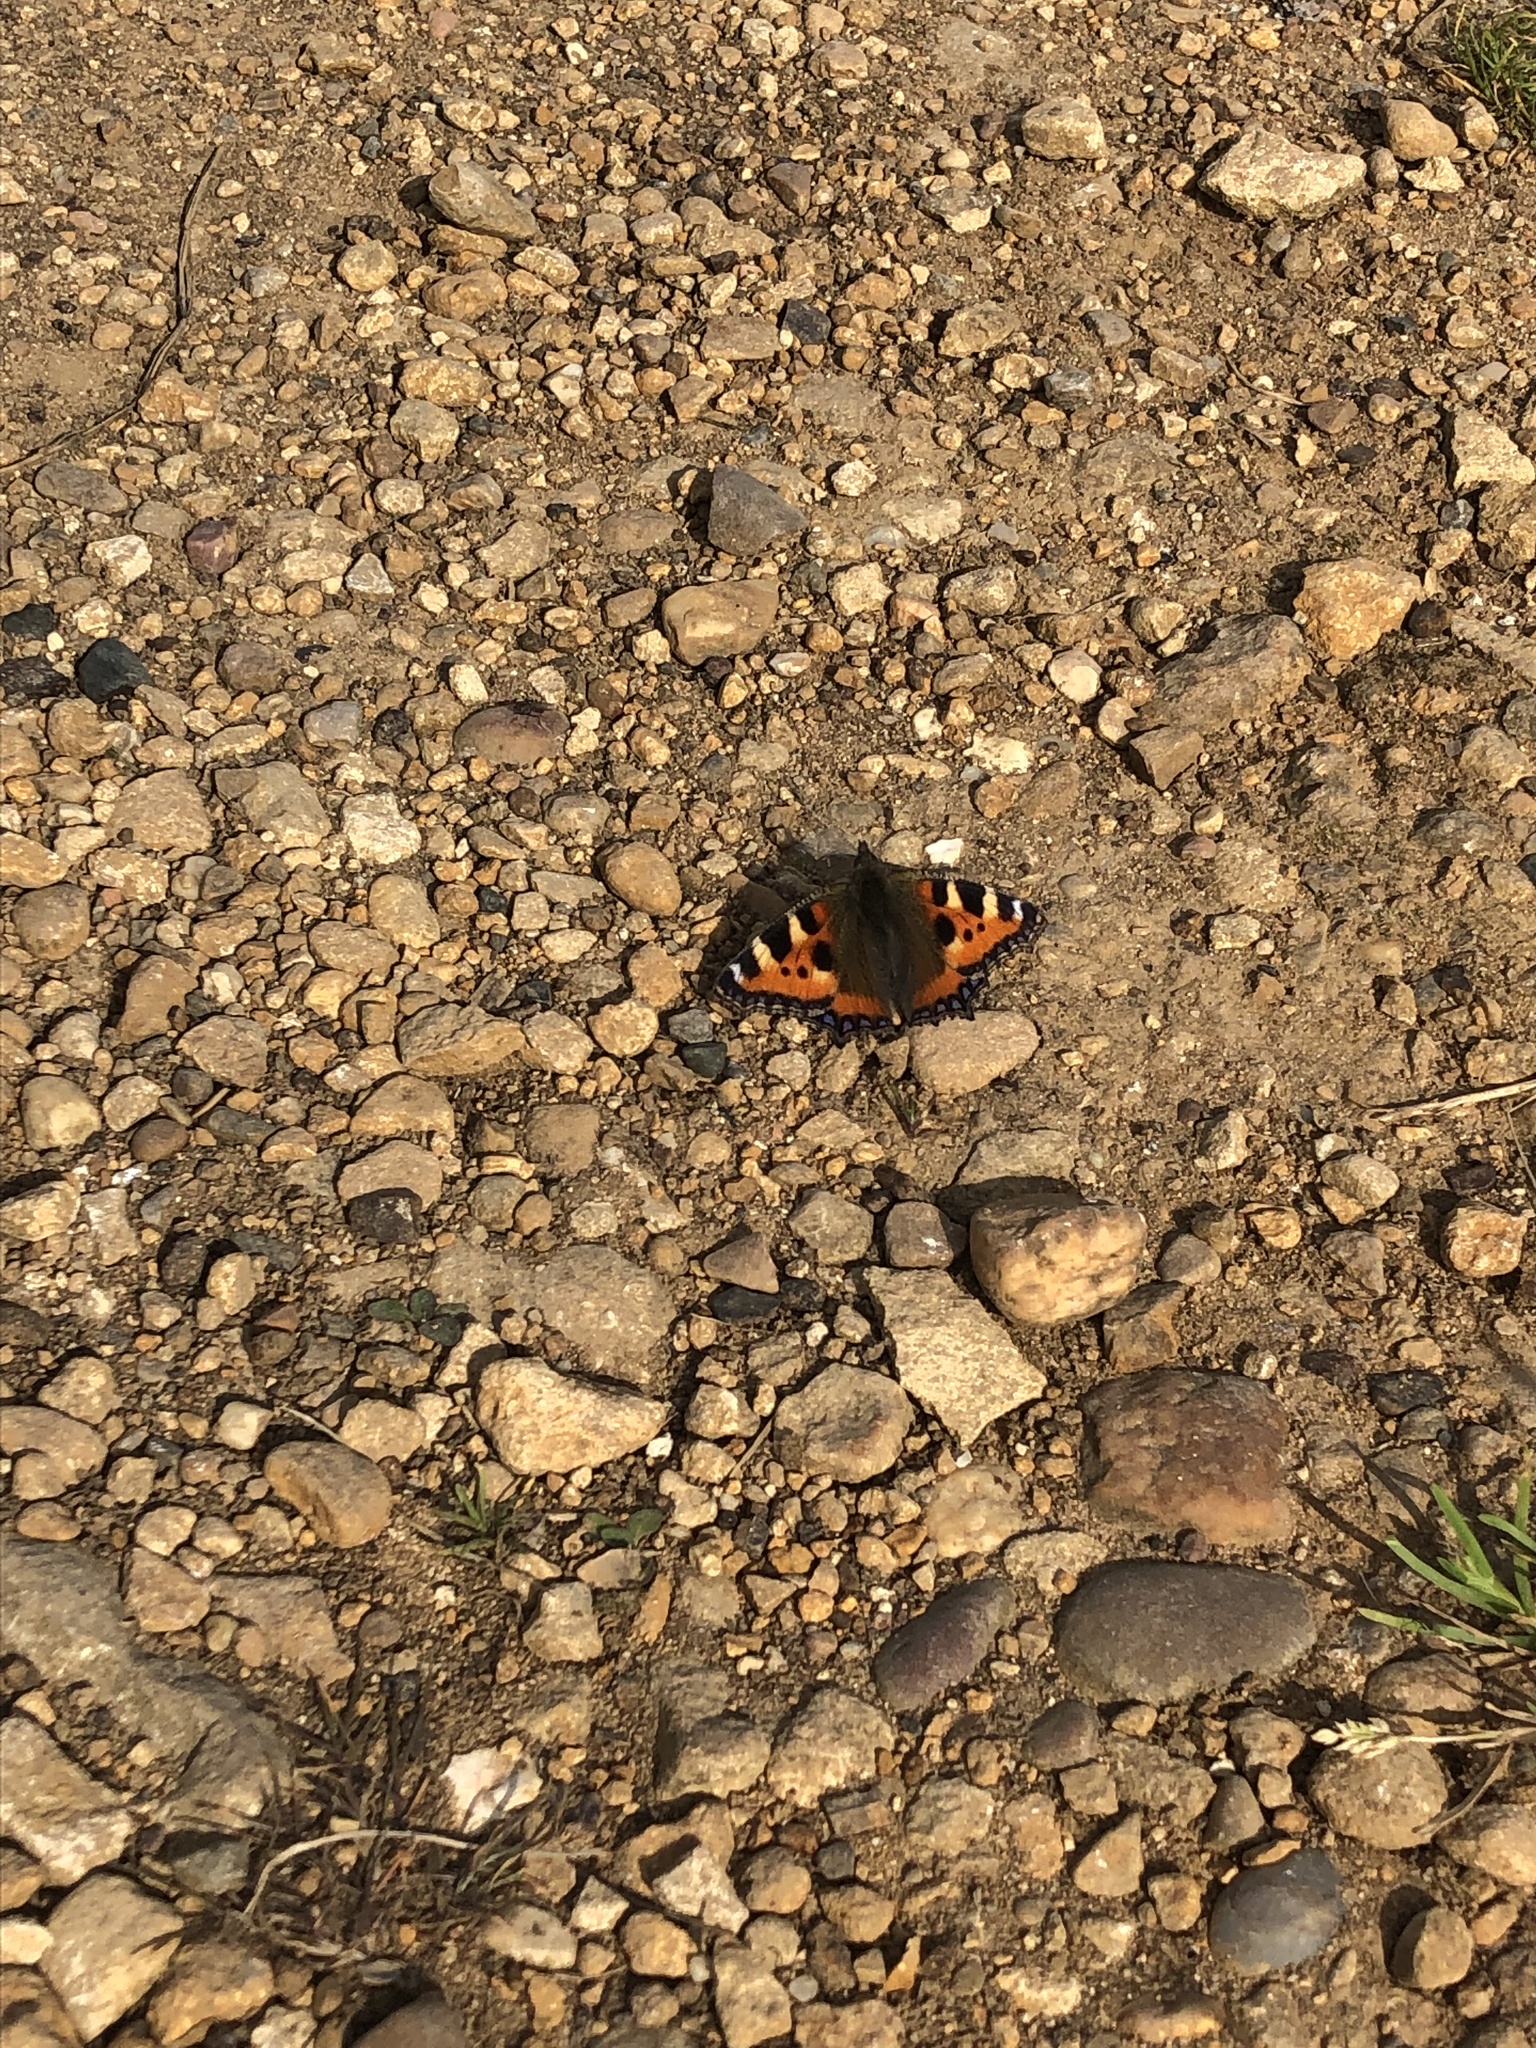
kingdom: Animalia
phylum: Arthropoda
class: Insecta
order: Lepidoptera
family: Nymphalidae
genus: Aglais
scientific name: Aglais urticae
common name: Small tortoiseshell
